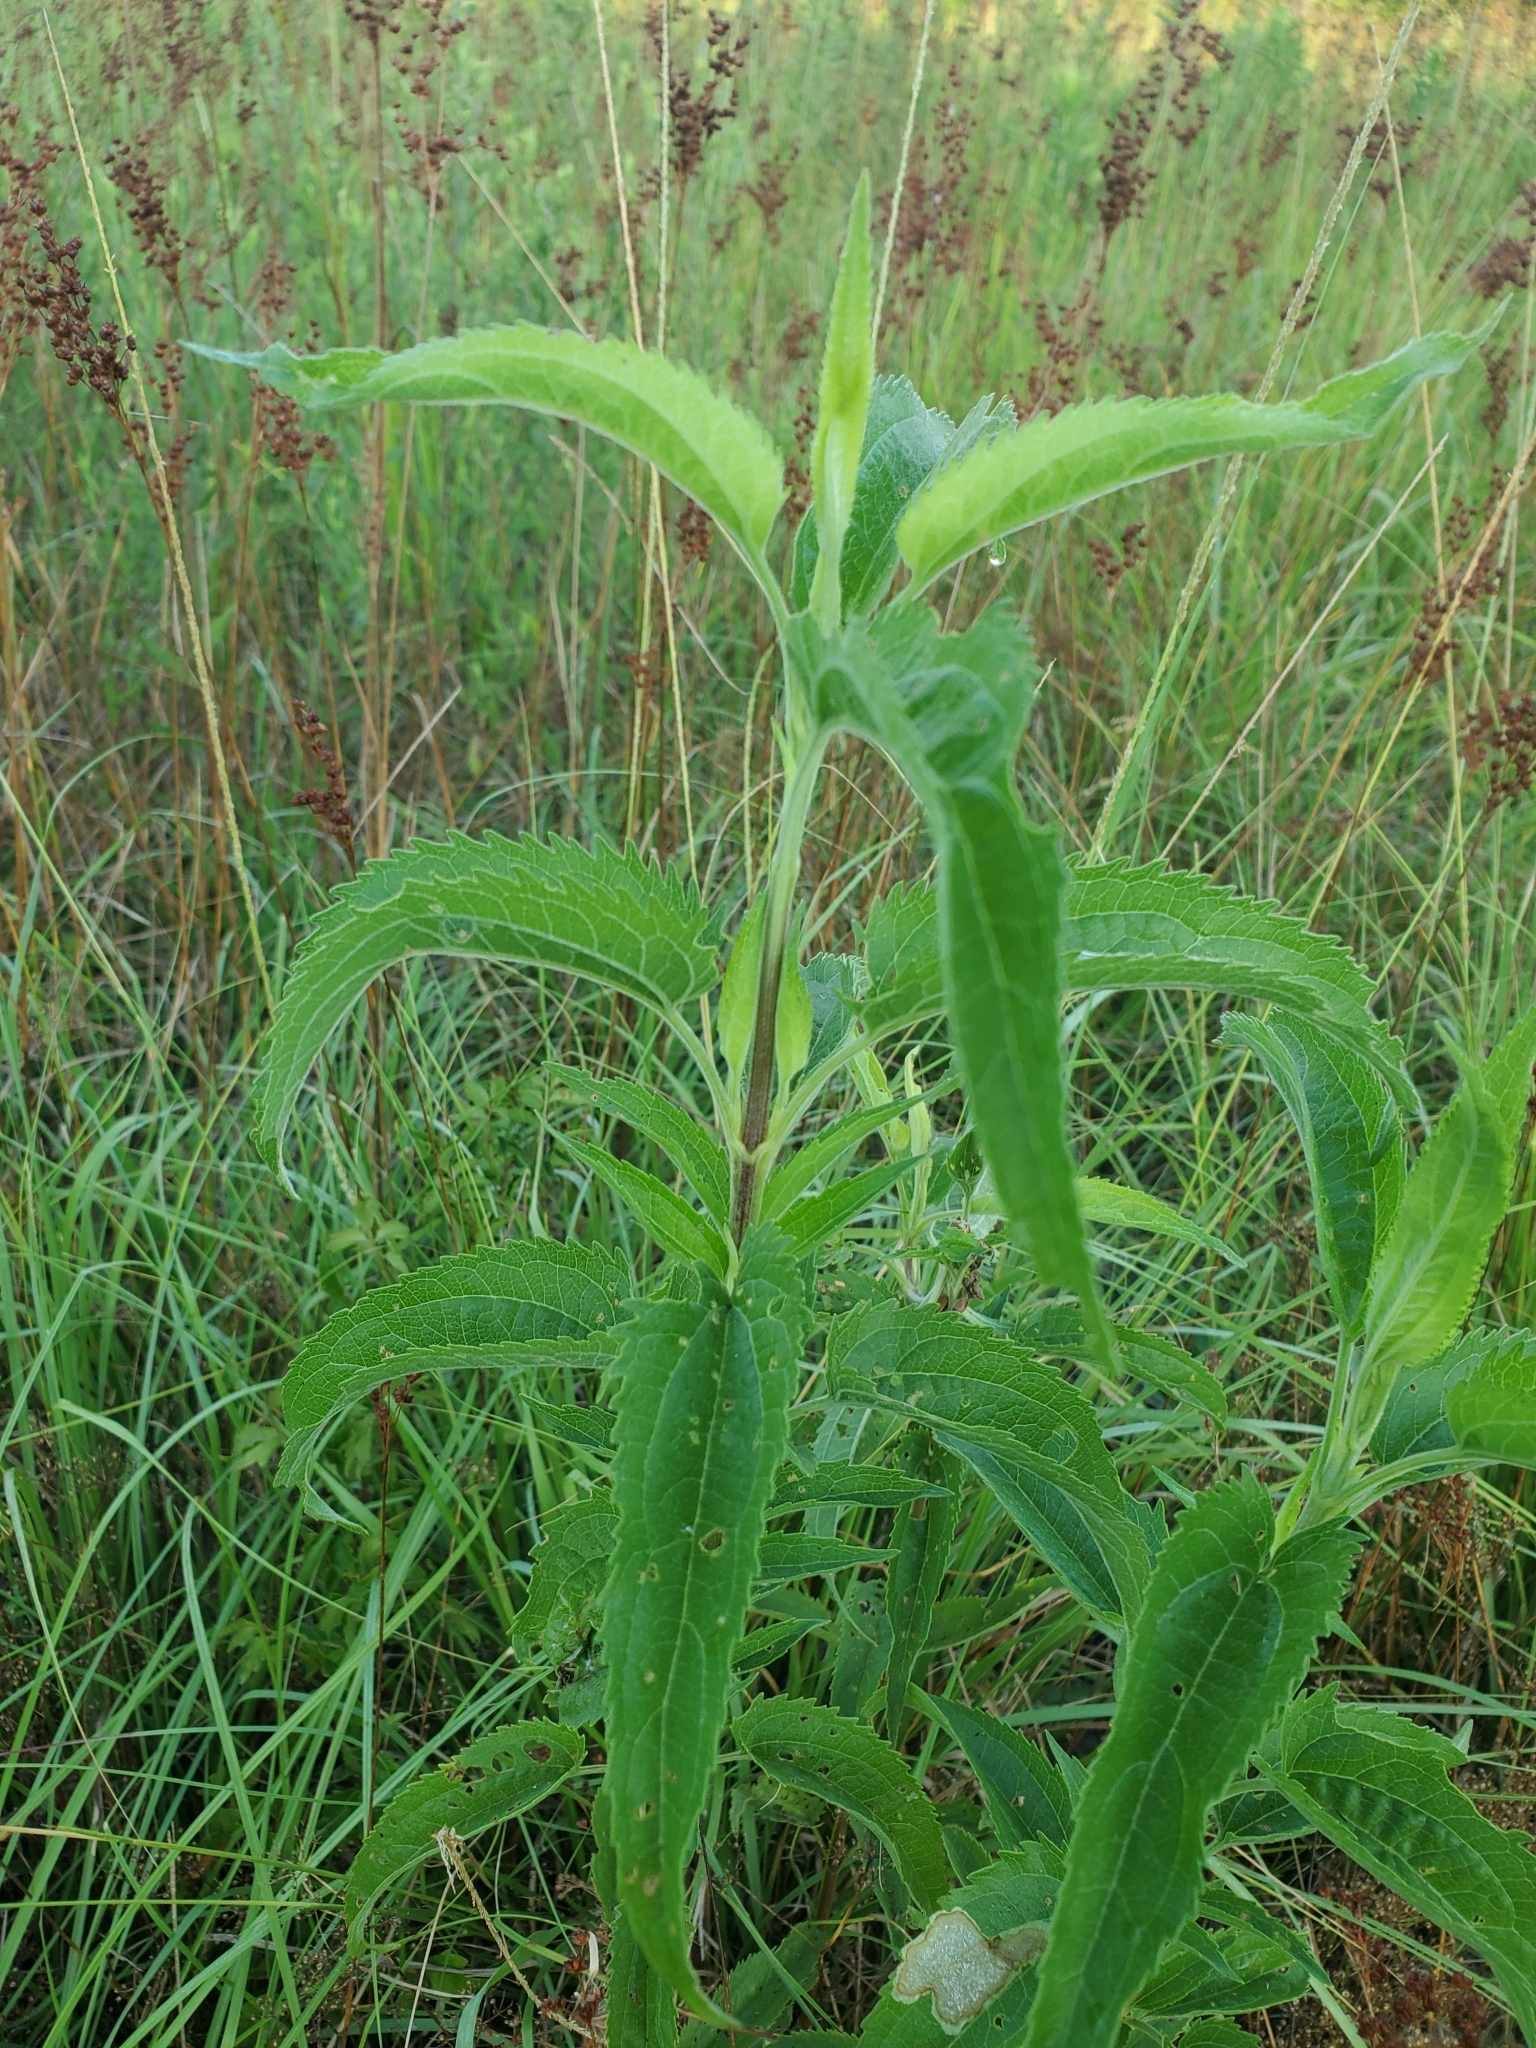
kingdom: Plantae
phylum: Tracheophyta
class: Magnoliopsida
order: Asterales
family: Asteraceae
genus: Eupatorium
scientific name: Eupatorium serotinum
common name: Late boneset
